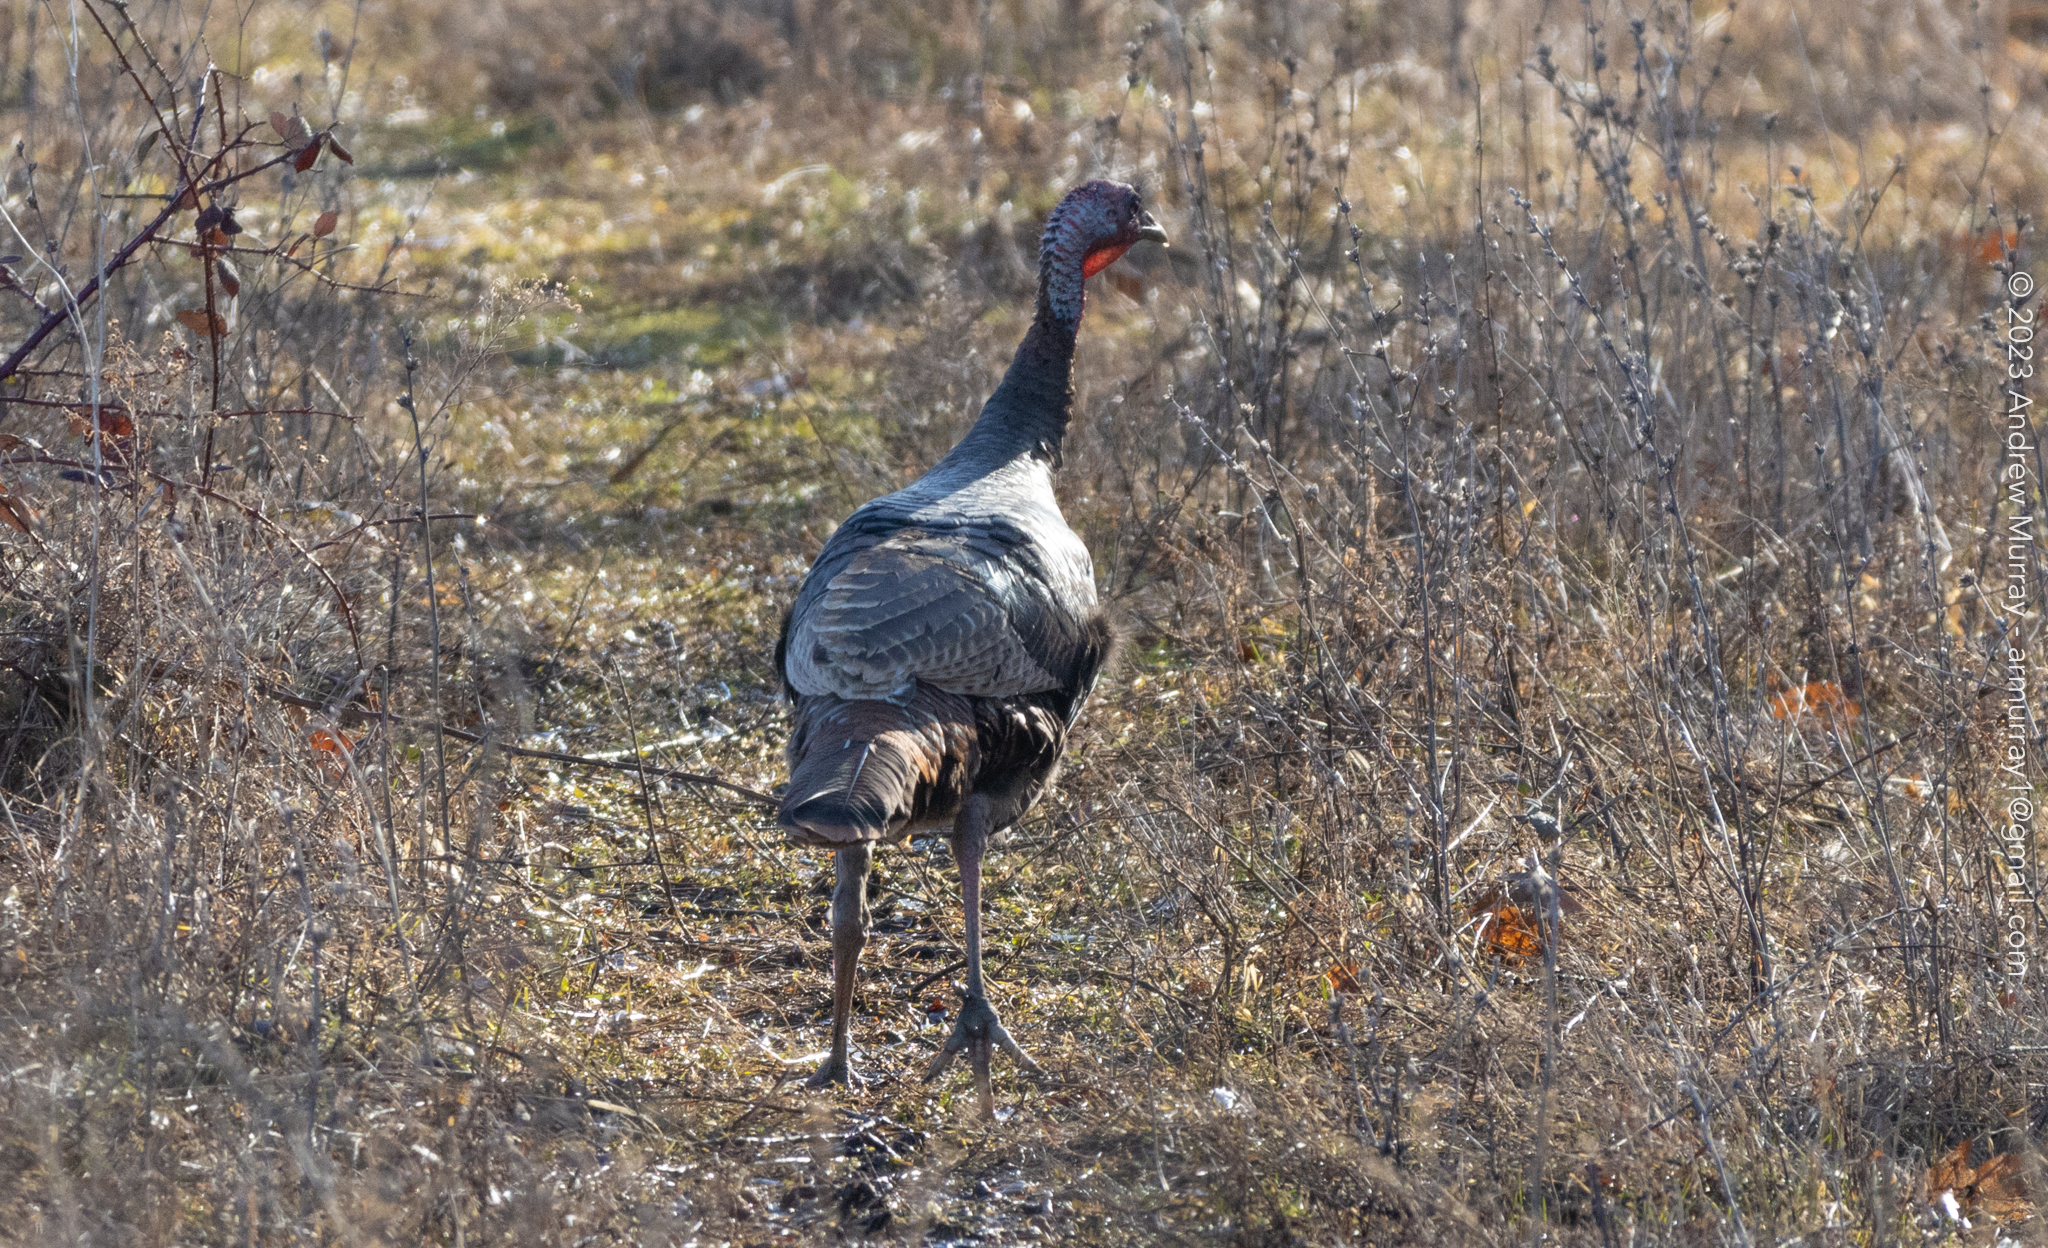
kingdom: Animalia
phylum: Chordata
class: Aves
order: Galliformes
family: Phasianidae
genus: Meleagris
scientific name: Meleagris gallopavo
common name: Wild turkey
